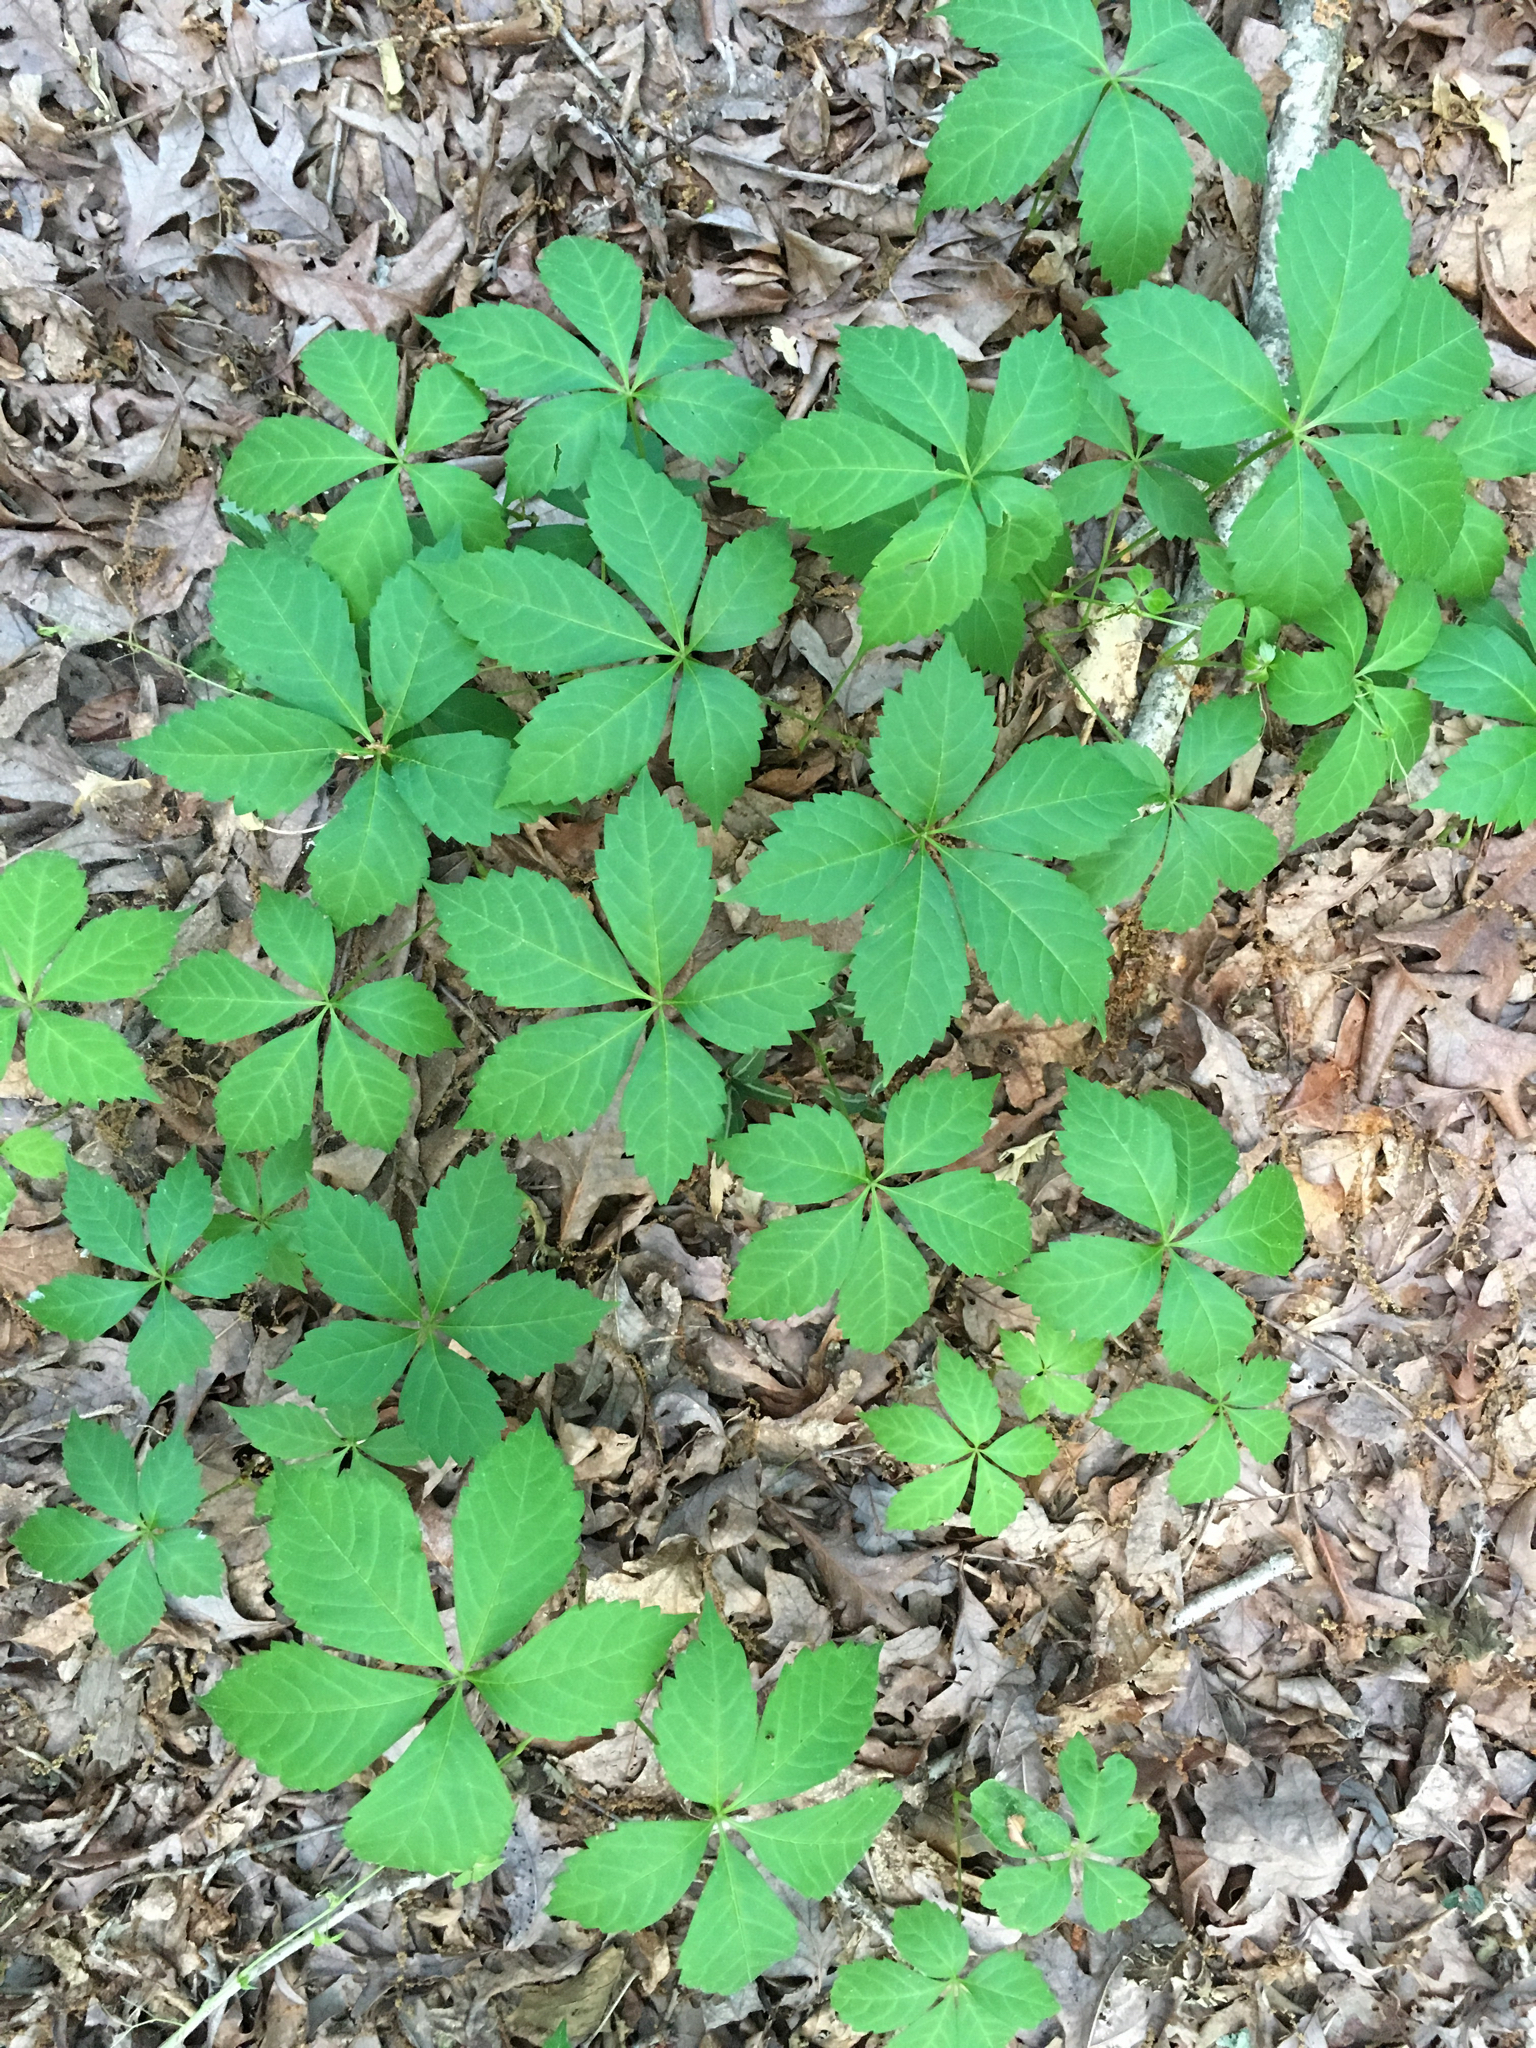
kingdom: Plantae
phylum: Tracheophyta
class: Magnoliopsida
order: Vitales
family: Vitaceae
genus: Parthenocissus
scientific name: Parthenocissus quinquefolia
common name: Virginia-creeper
